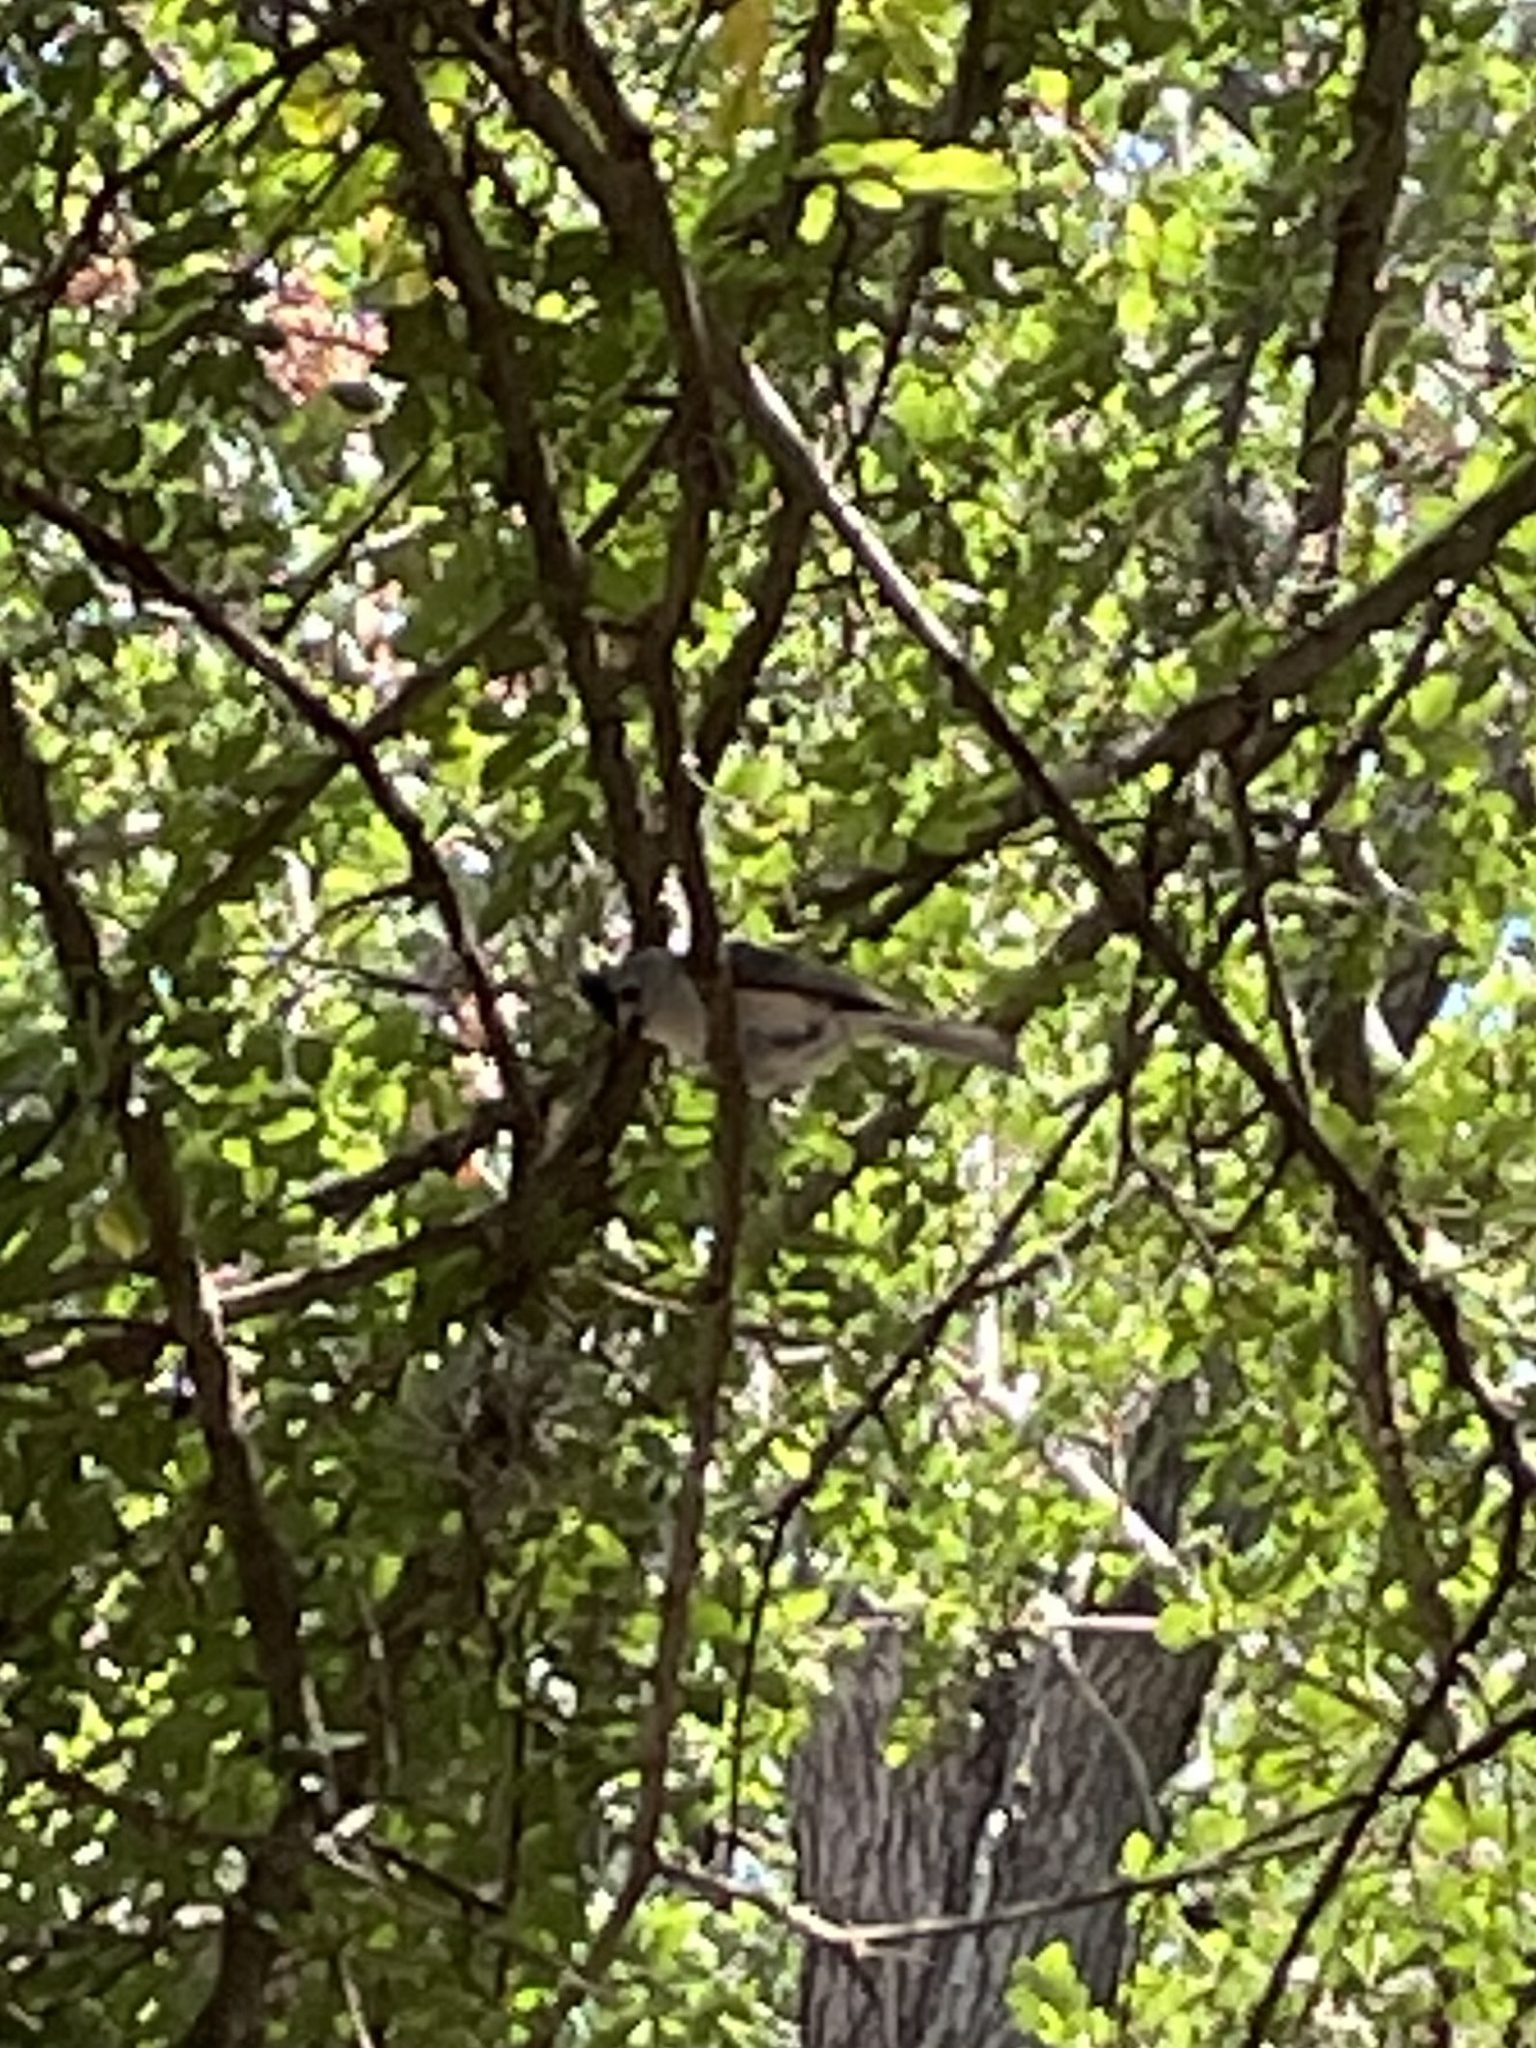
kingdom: Animalia
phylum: Chordata
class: Aves
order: Passeriformes
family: Paridae
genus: Baeolophus
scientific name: Baeolophus atricristatus
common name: Black-crested titmouse
